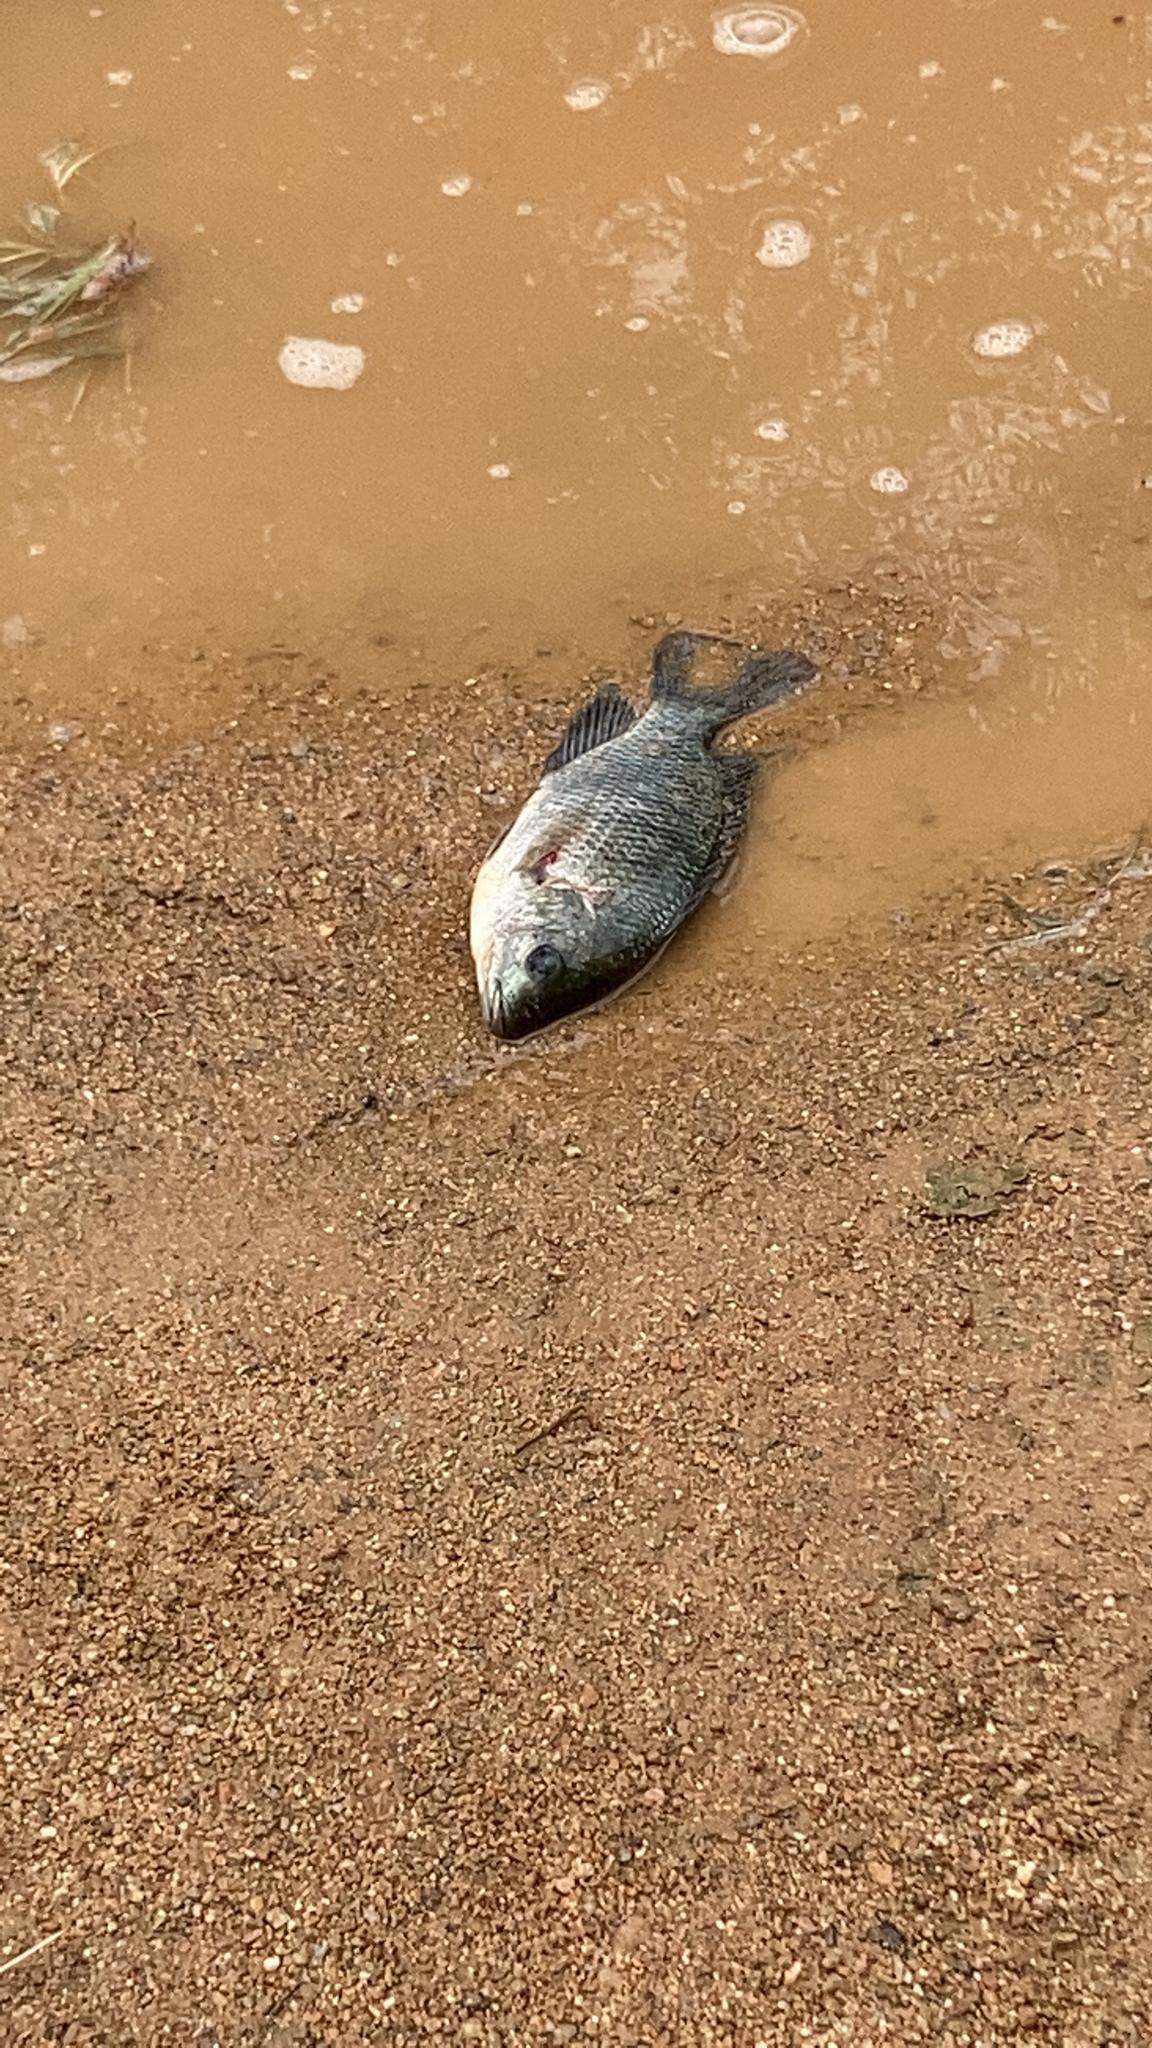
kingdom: Animalia
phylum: Chordata
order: Perciformes
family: Cichlidae
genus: Oreochromis
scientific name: Oreochromis mossambicus
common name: Mozambique tilapia
